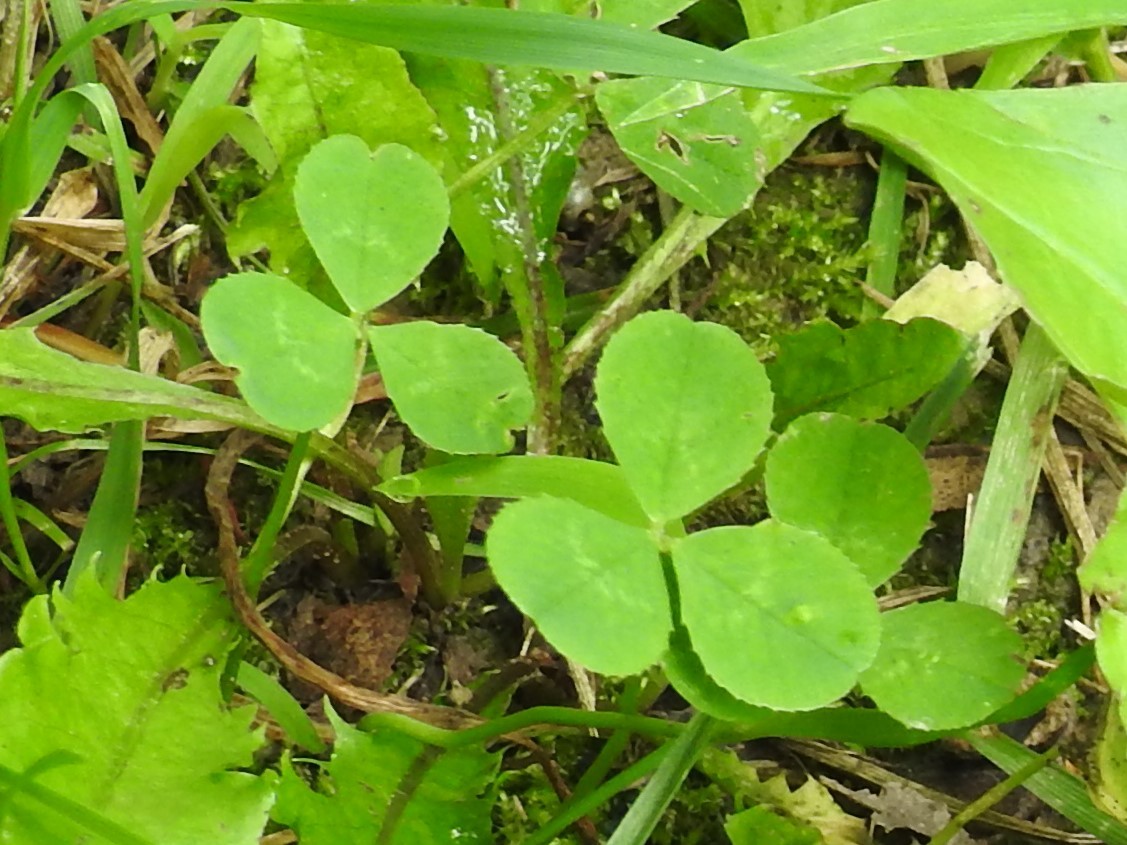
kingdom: Plantae
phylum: Tracheophyta
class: Magnoliopsida
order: Fabales
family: Fabaceae
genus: Trifolium
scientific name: Trifolium repens
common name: White clover
